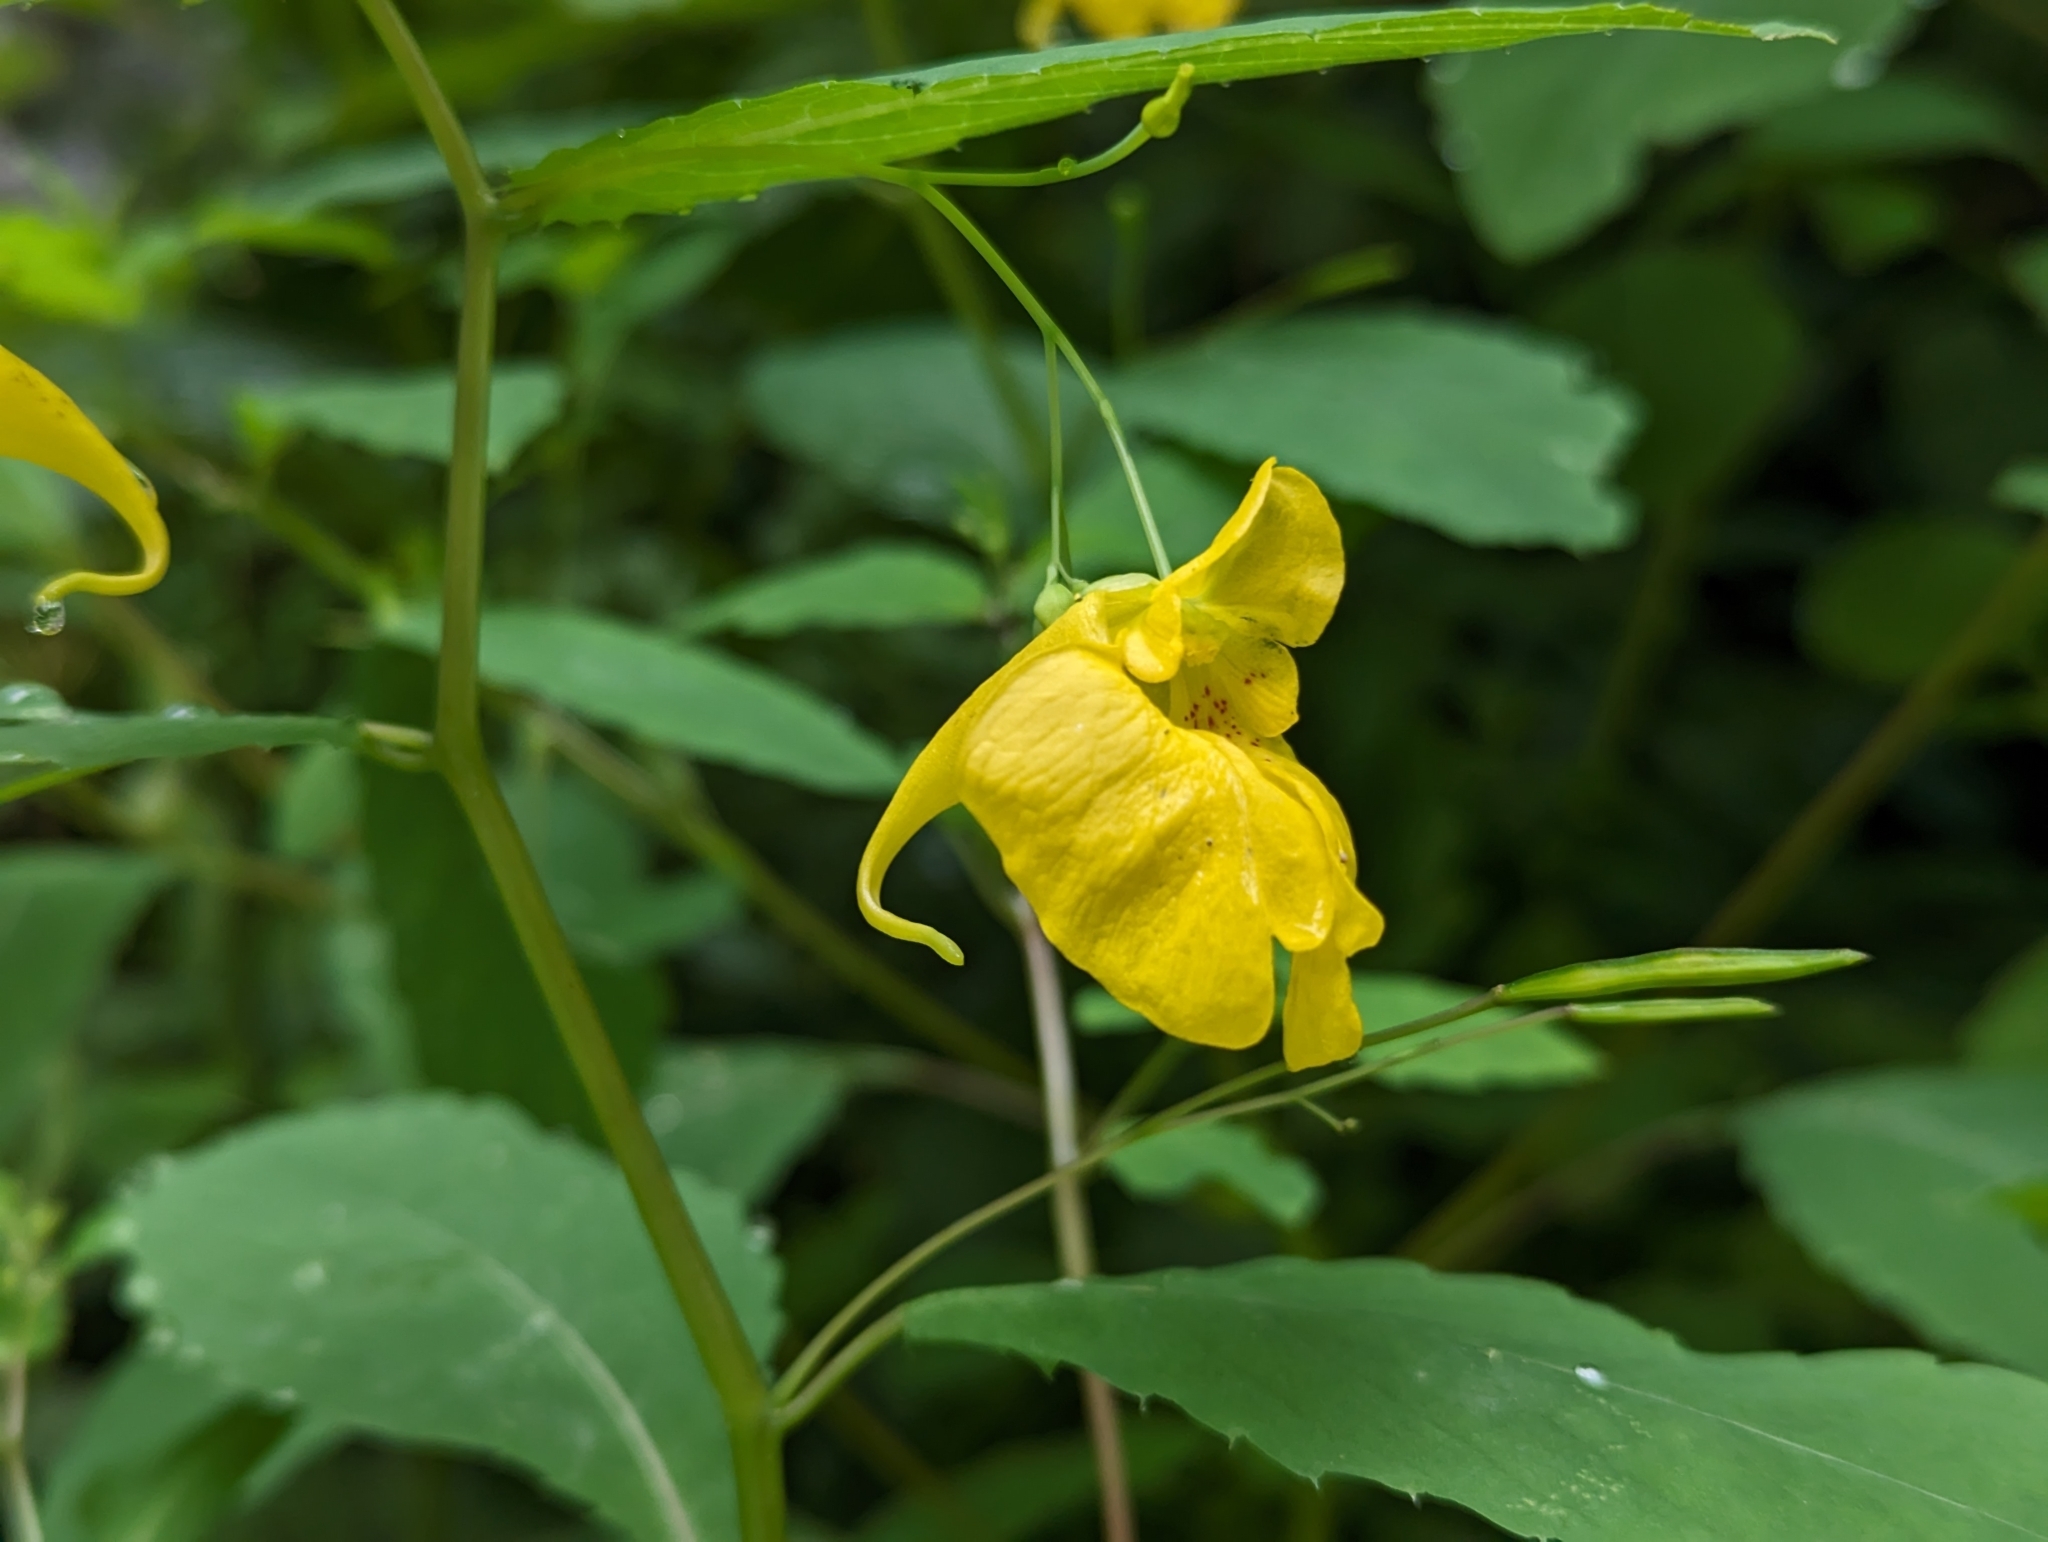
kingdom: Plantae
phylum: Tracheophyta
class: Magnoliopsida
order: Ericales
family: Balsaminaceae
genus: Impatiens
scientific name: Impatiens noli-tangere
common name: Touch-me-not balsam
